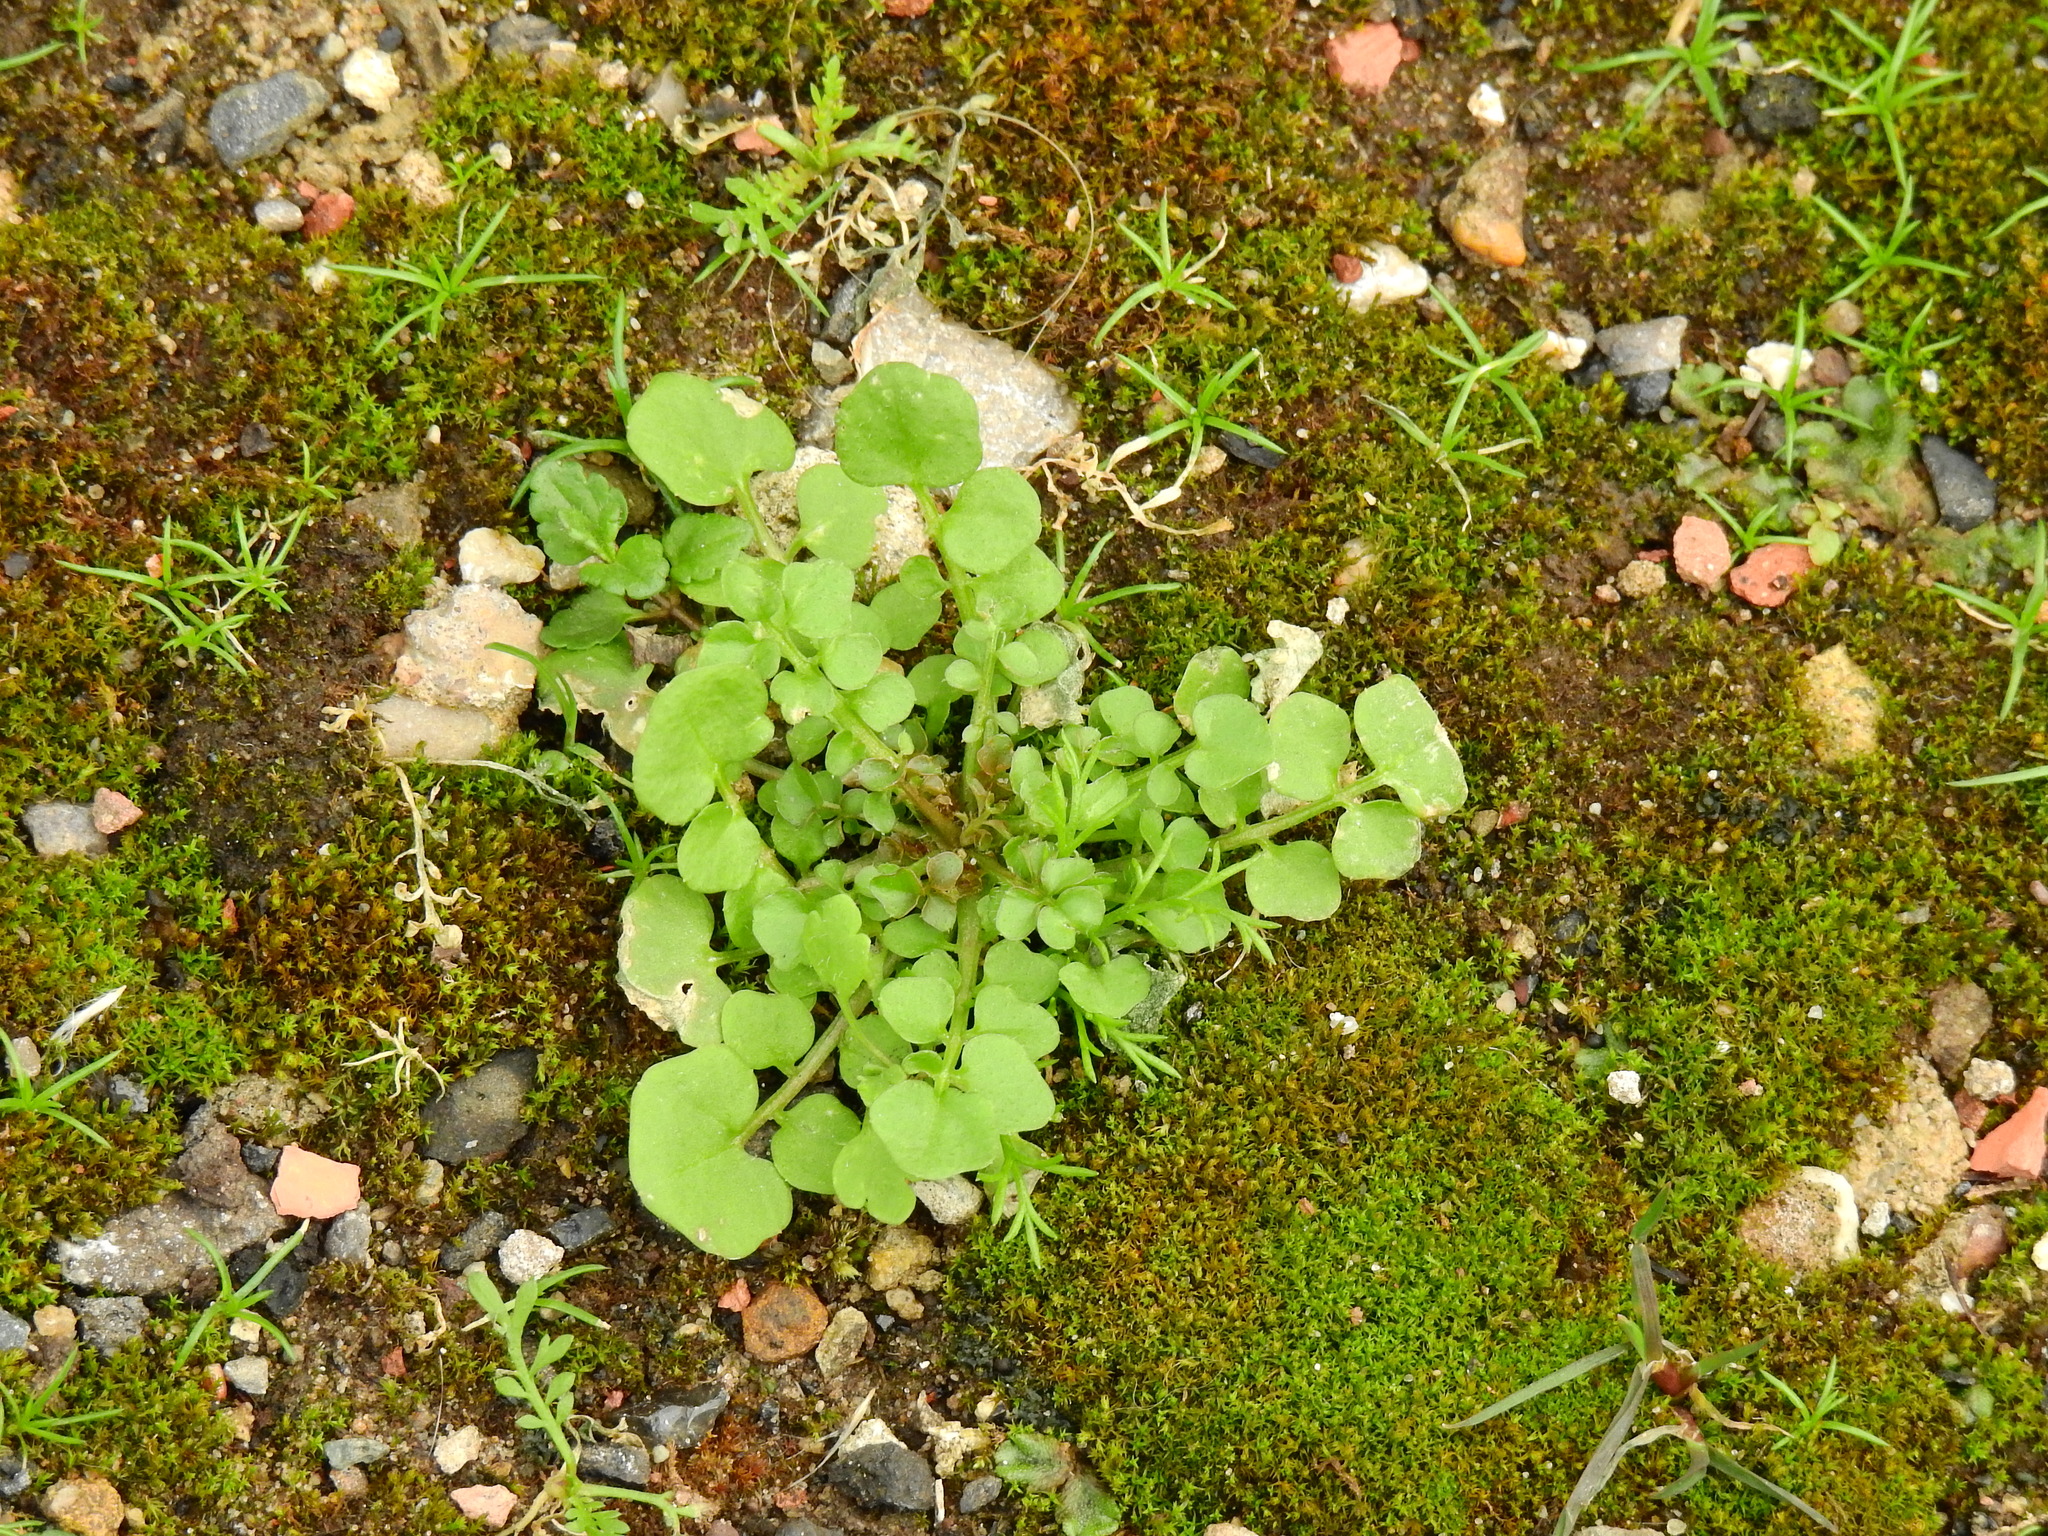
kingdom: Plantae
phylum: Tracheophyta
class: Magnoliopsida
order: Brassicales
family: Brassicaceae
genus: Cardamine
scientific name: Cardamine hirsuta
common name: Hairy bittercress
